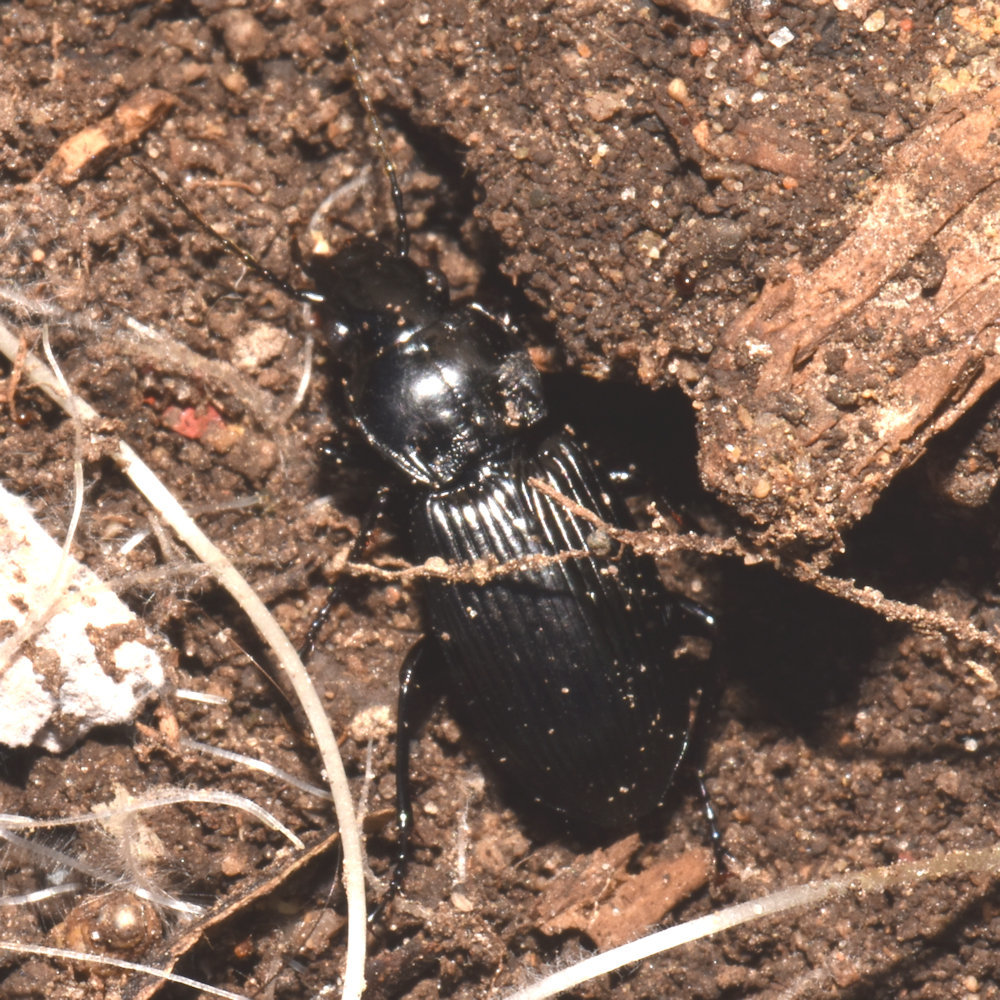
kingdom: Animalia
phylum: Arthropoda
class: Insecta
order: Coleoptera
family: Carabidae
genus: Pterostichus
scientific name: Pterostichus melanarius
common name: European dark harp ground beetle
